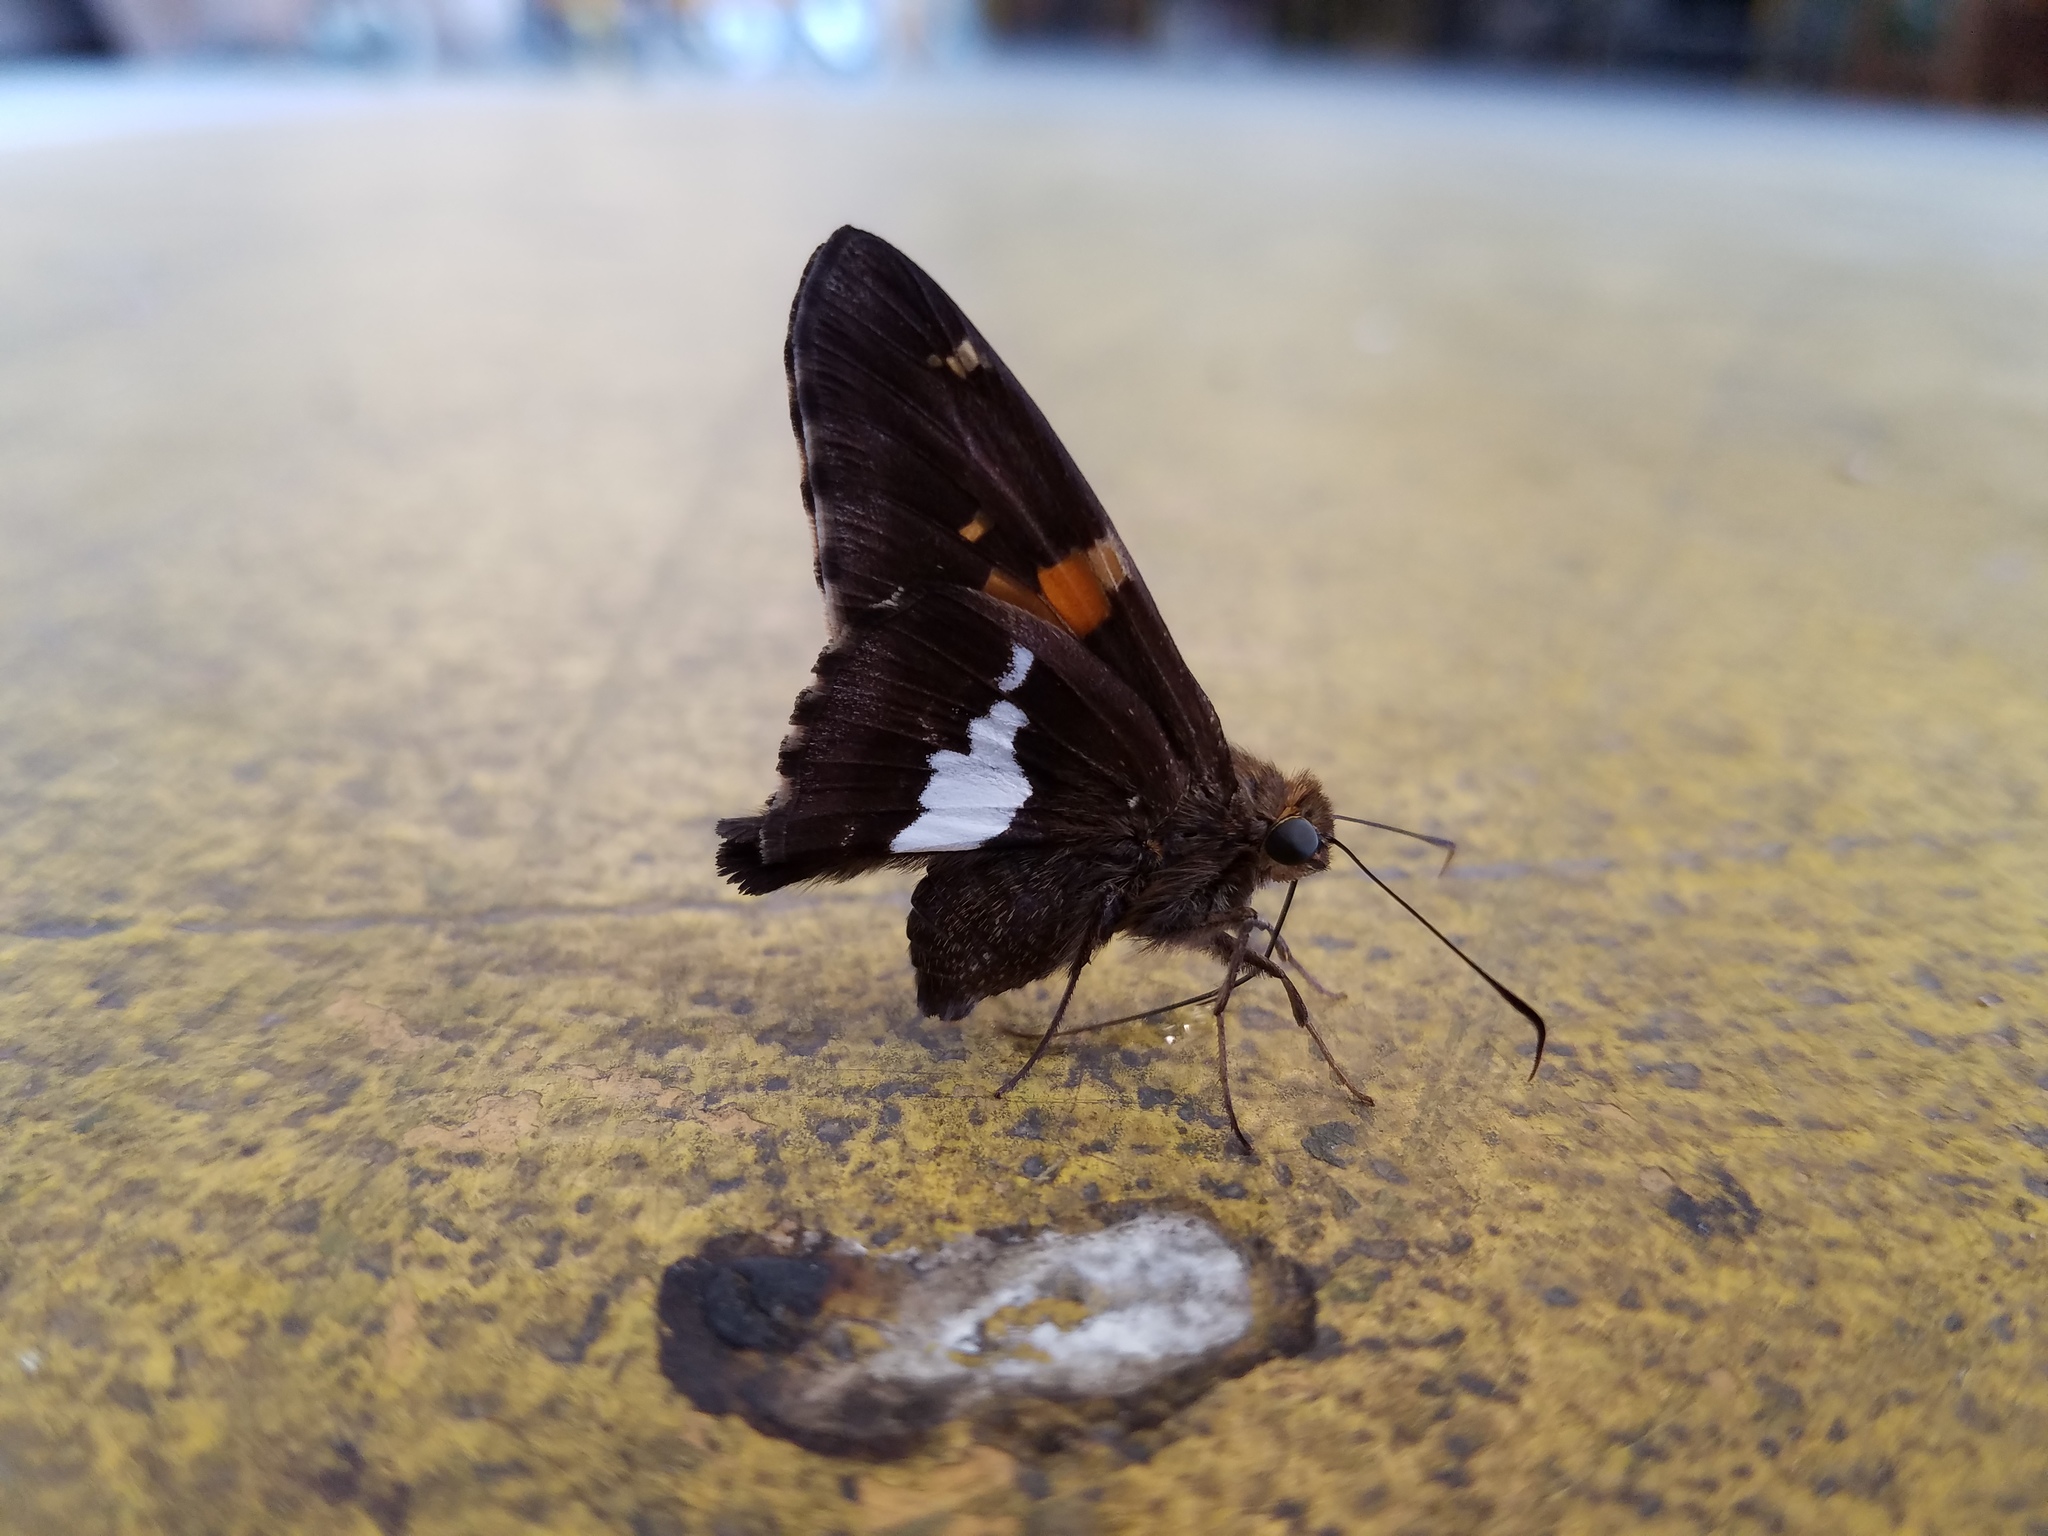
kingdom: Animalia
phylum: Arthropoda
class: Insecta
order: Lepidoptera
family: Hesperiidae
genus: Epargyreus
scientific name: Epargyreus clarus
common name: Silver-spotted skipper
